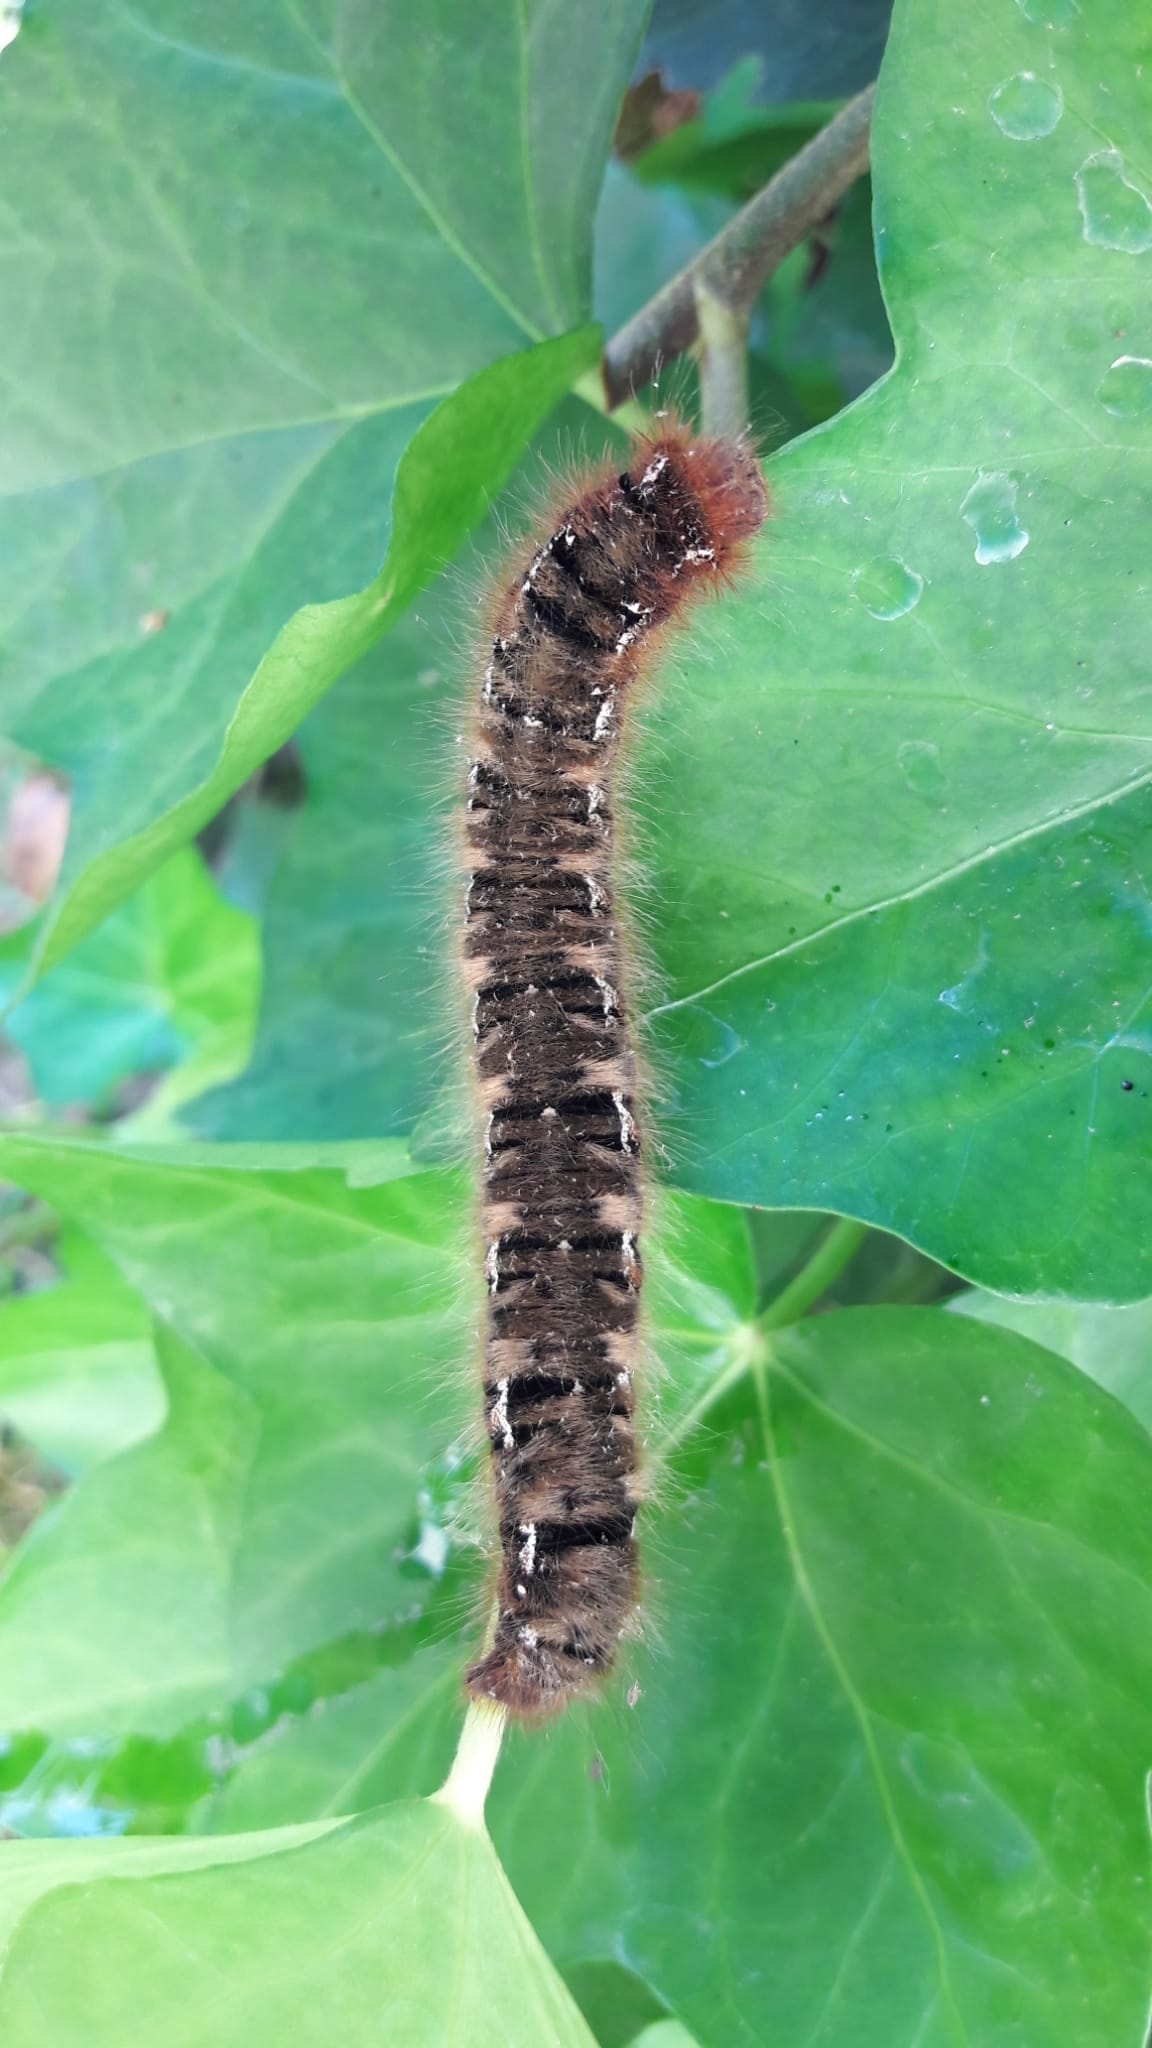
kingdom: Animalia
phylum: Arthropoda
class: Insecta
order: Lepidoptera
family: Lasiocampidae
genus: Lasiocampa
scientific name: Lasiocampa quercus
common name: Oak eggar
